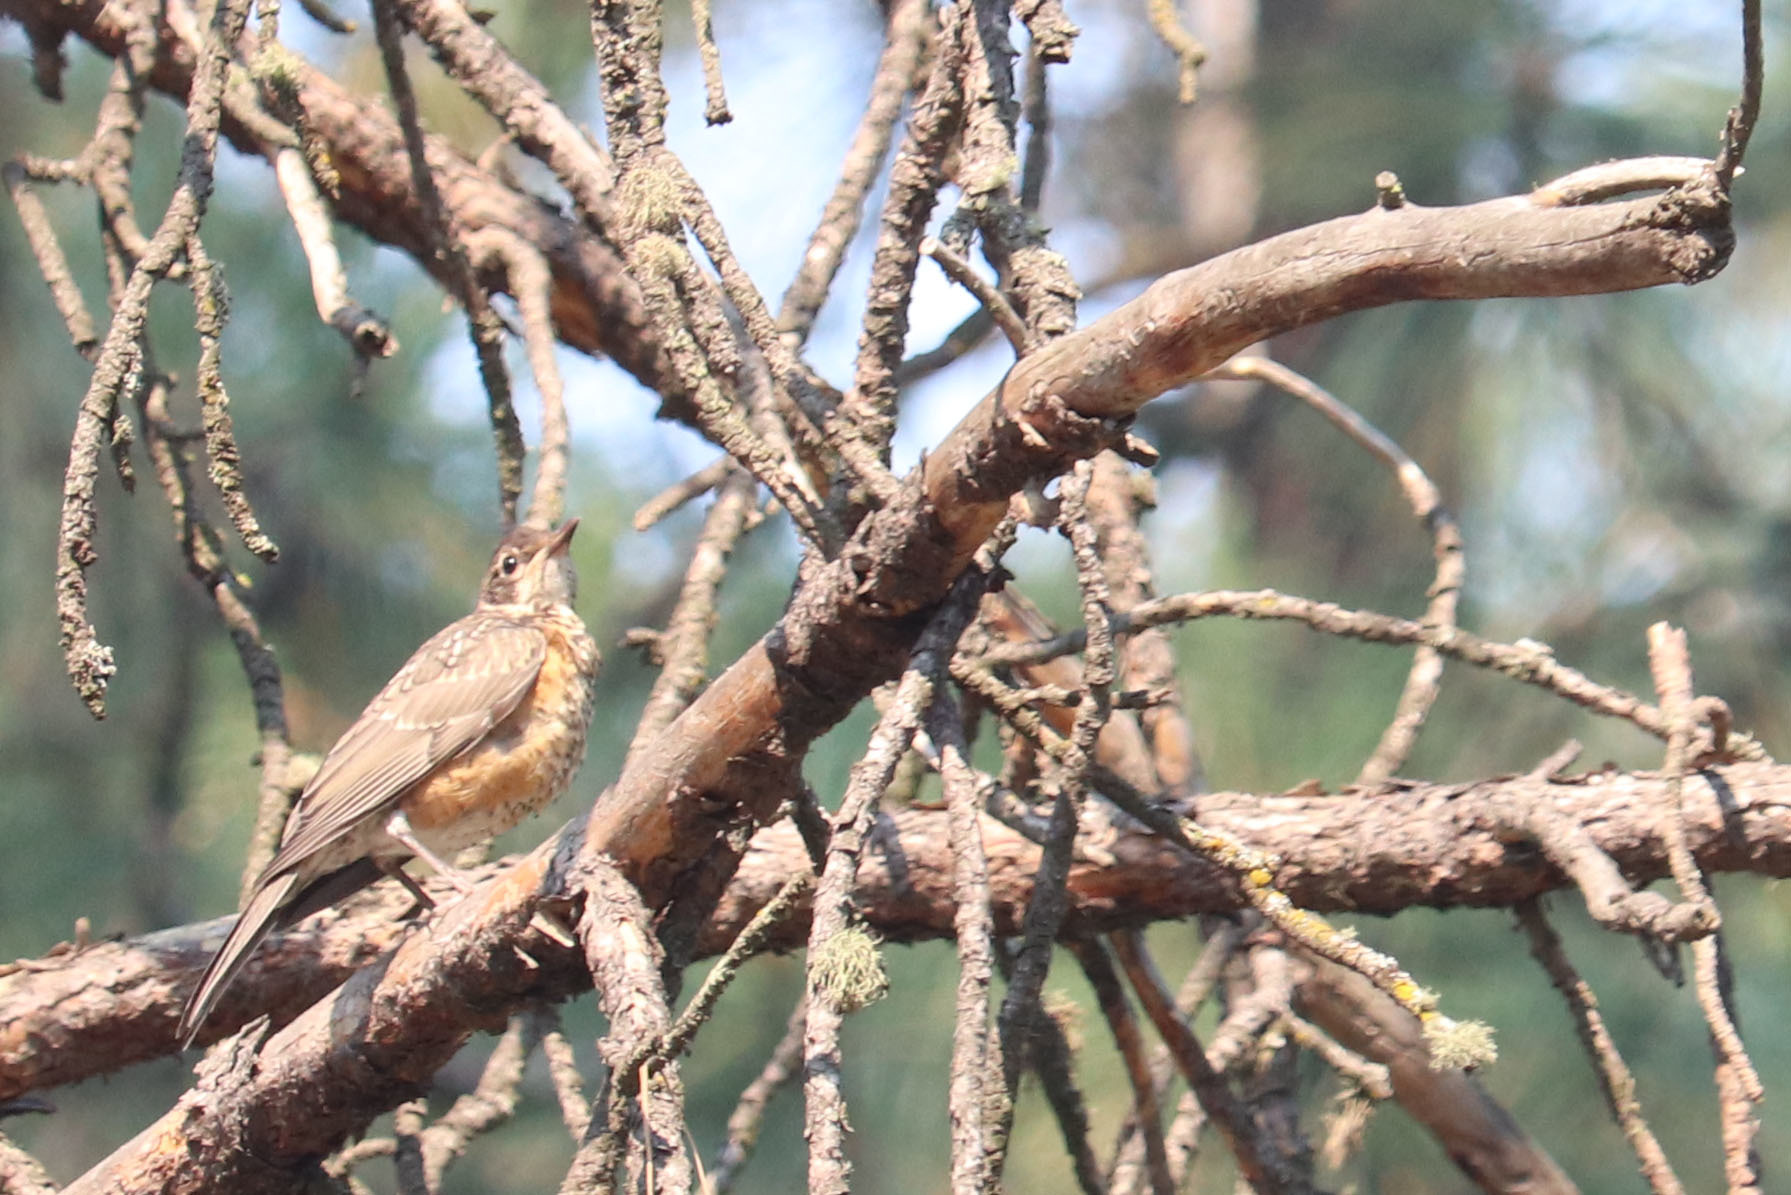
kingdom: Animalia
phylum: Chordata
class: Aves
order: Passeriformes
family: Turdidae
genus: Turdus
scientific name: Turdus migratorius
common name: American robin
